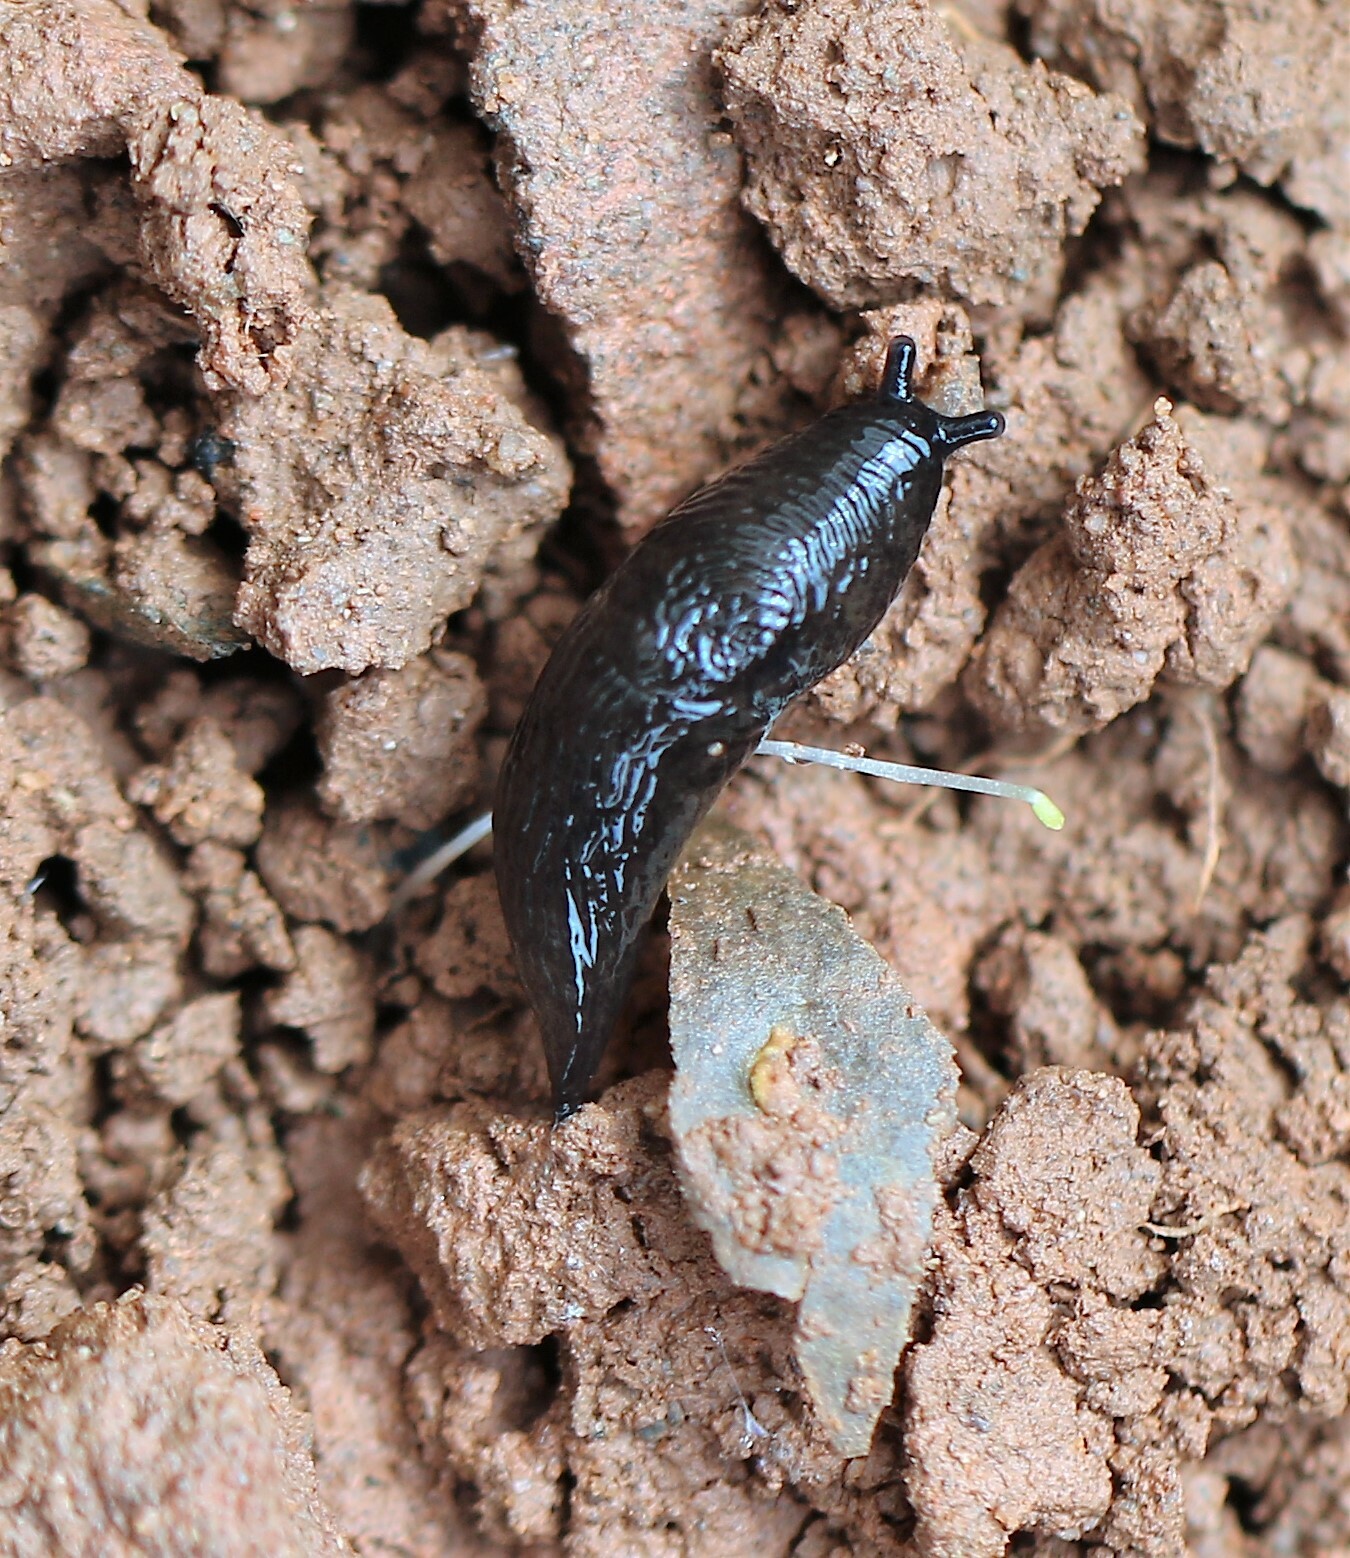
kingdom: Animalia
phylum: Mollusca
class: Gastropoda
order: Stylommatophora
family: Agriolimacidae
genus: Deroceras
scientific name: Deroceras laeve
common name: Marsh slug
